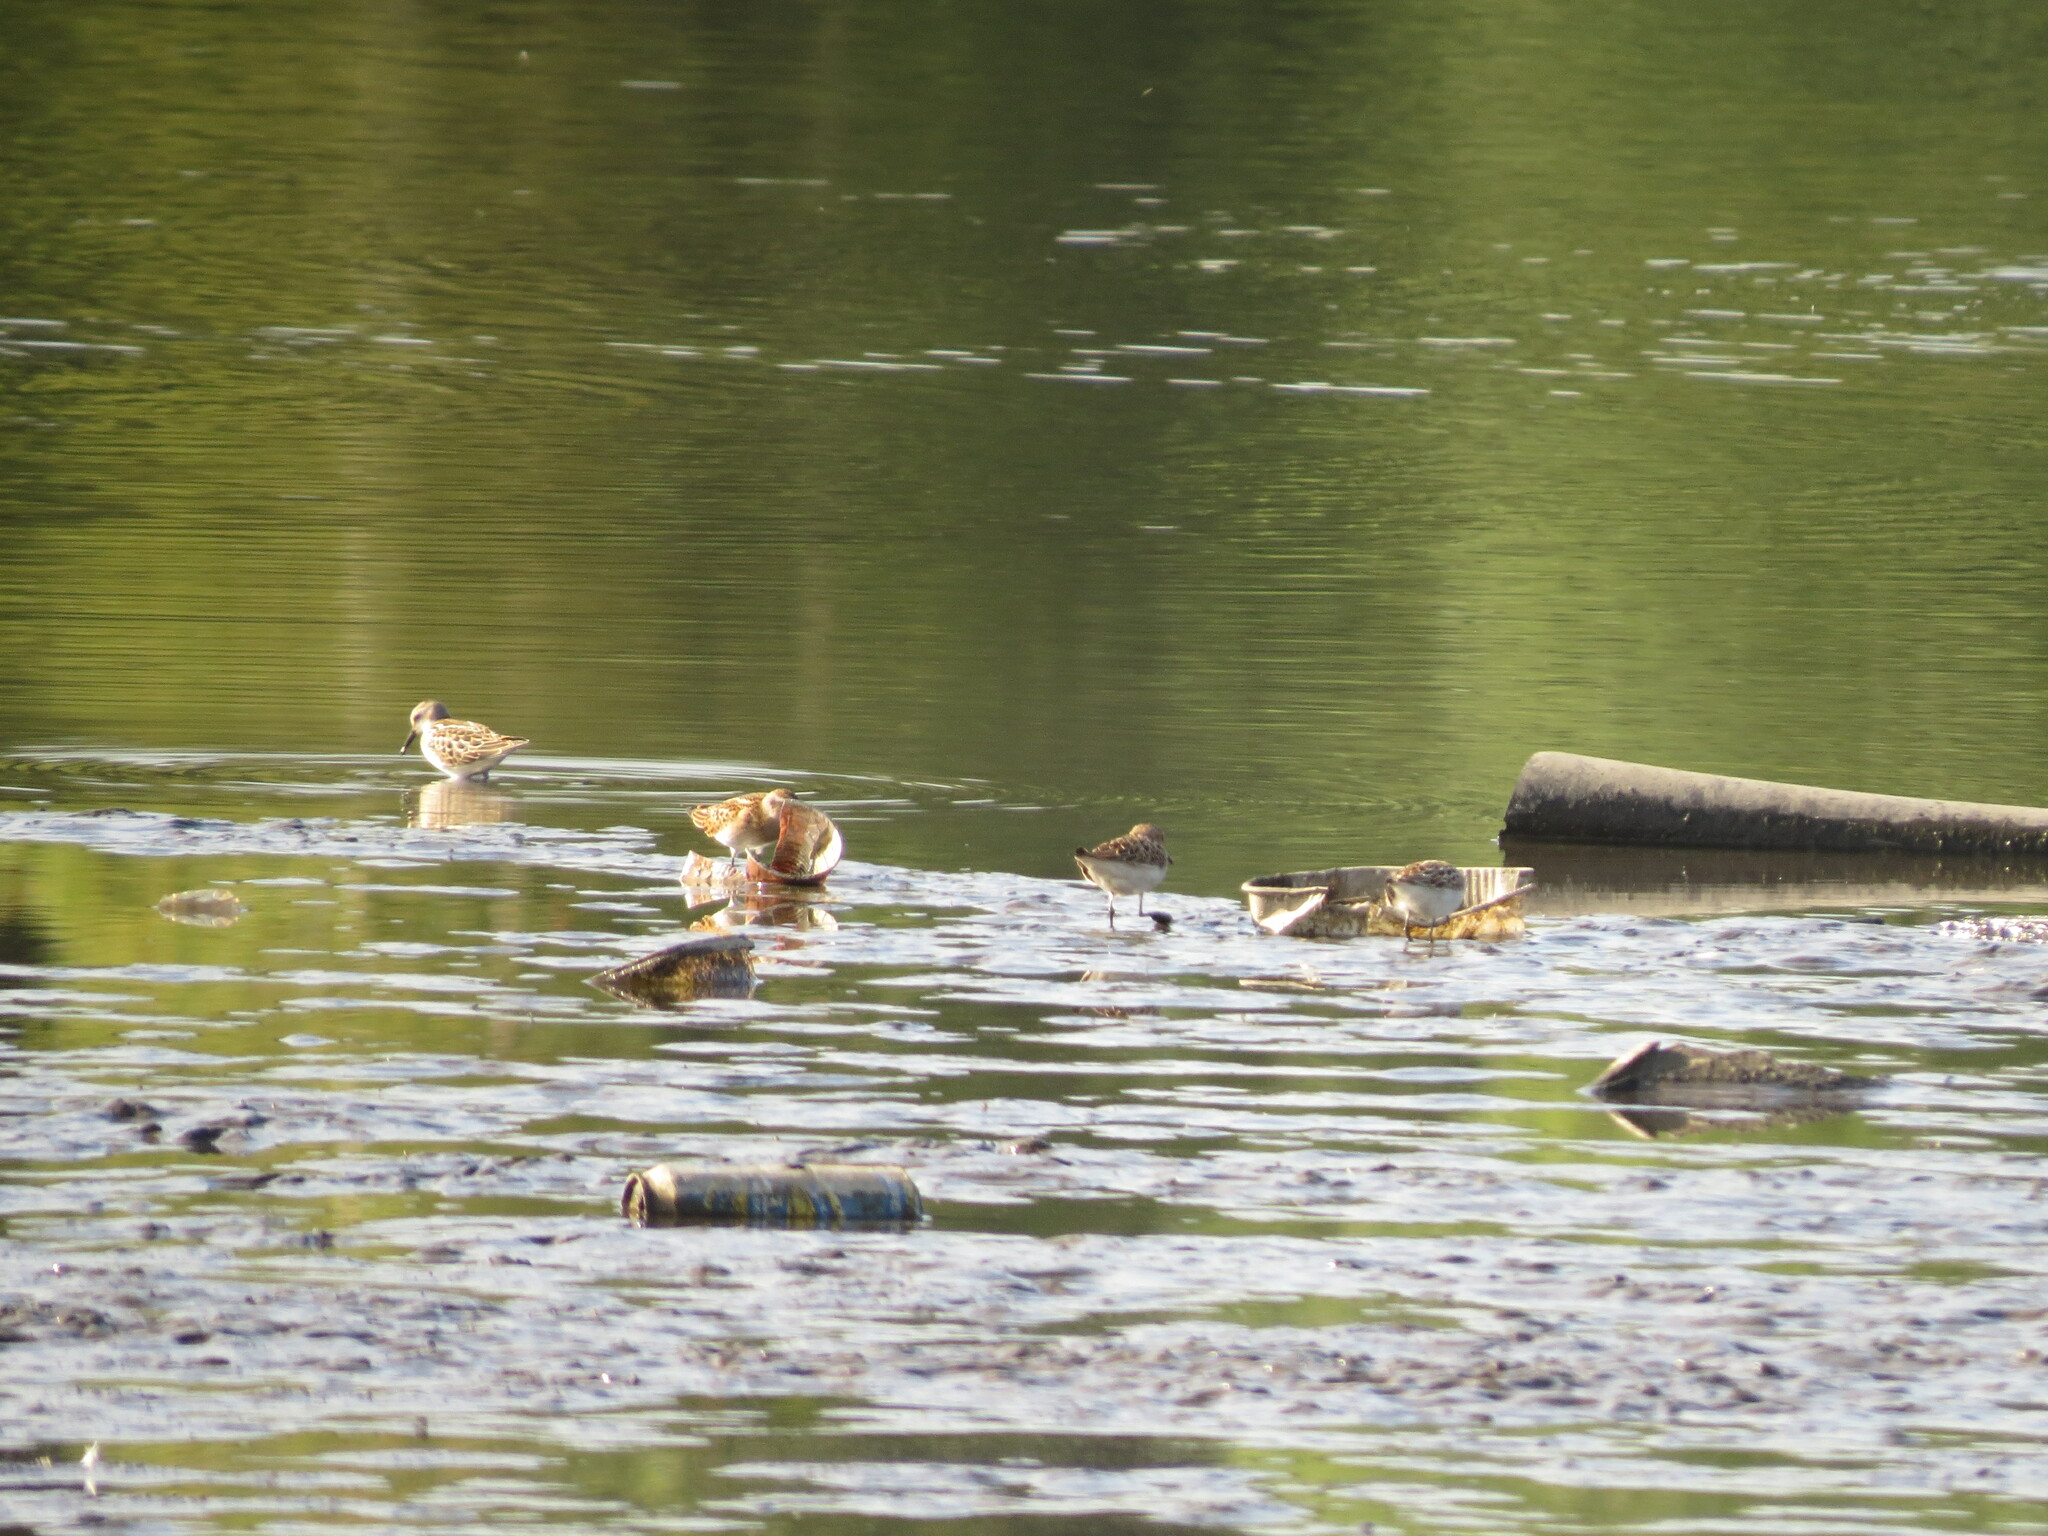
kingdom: Animalia
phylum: Chordata
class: Aves
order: Charadriiformes
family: Scolopacidae
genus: Calidris
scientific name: Calidris minuta
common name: Little stint
